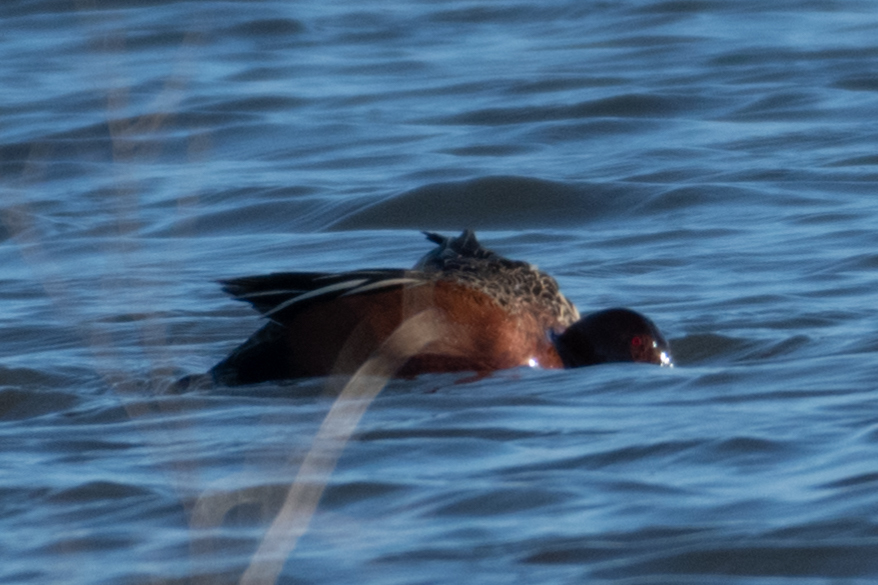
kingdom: Animalia
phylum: Chordata
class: Aves
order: Anseriformes
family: Anatidae
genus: Spatula
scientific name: Spatula cyanoptera
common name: Cinnamon teal
